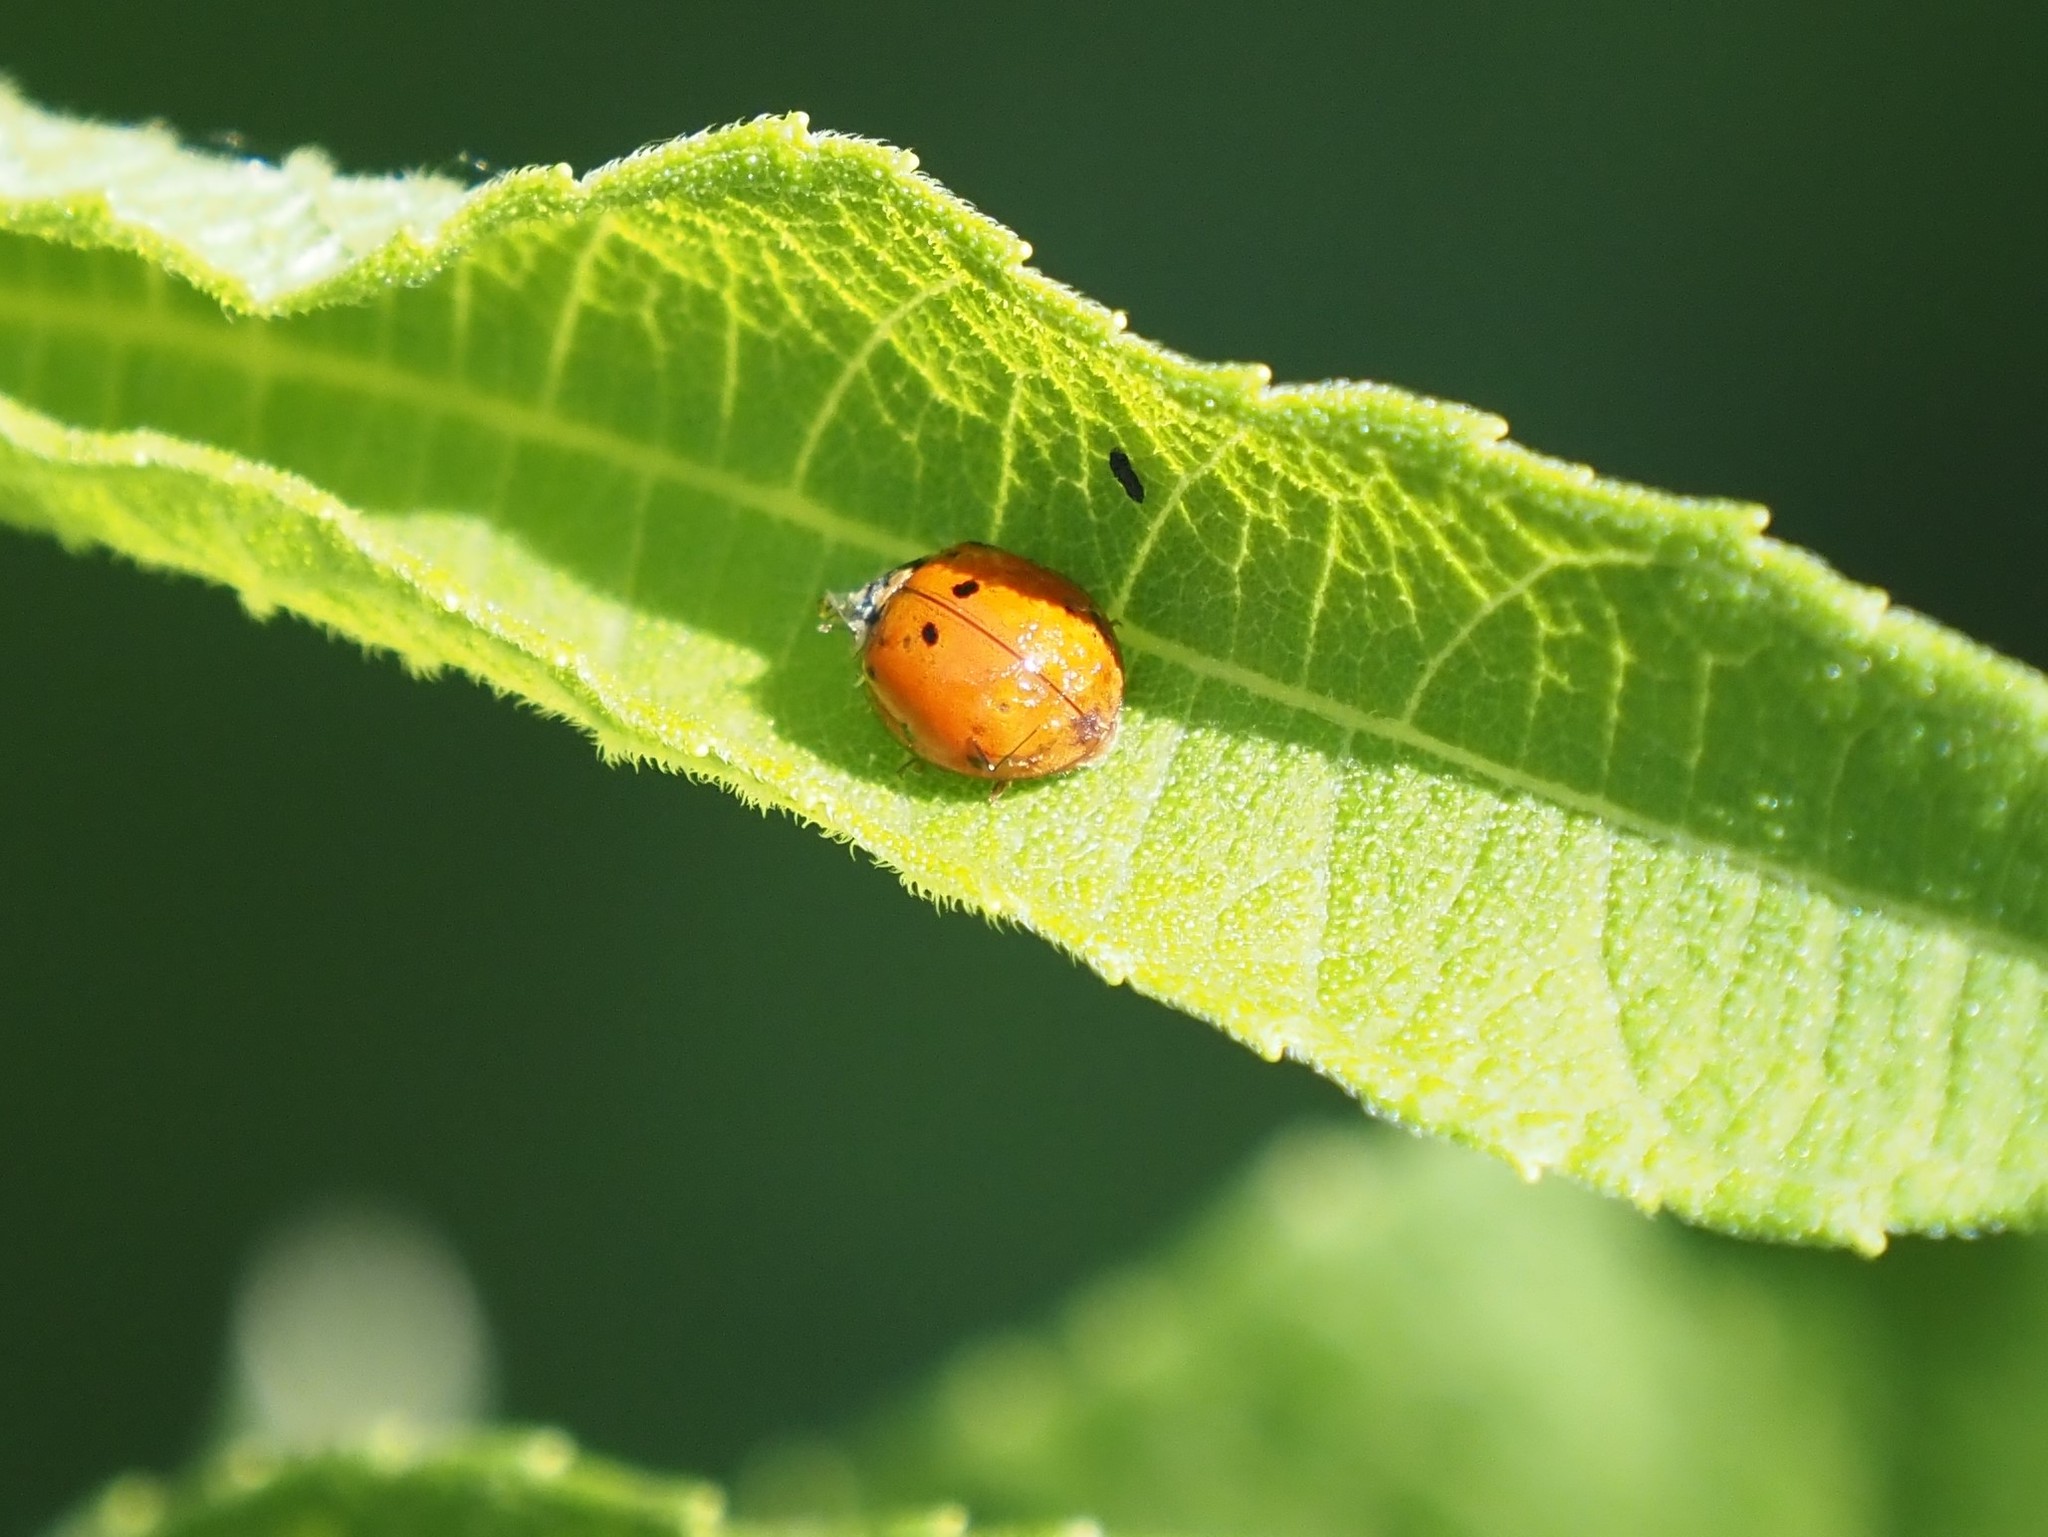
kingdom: Animalia
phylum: Arthropoda
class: Insecta
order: Coleoptera
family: Coccinellidae
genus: Harmonia
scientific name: Harmonia axyridis
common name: Harlequin ladybird
